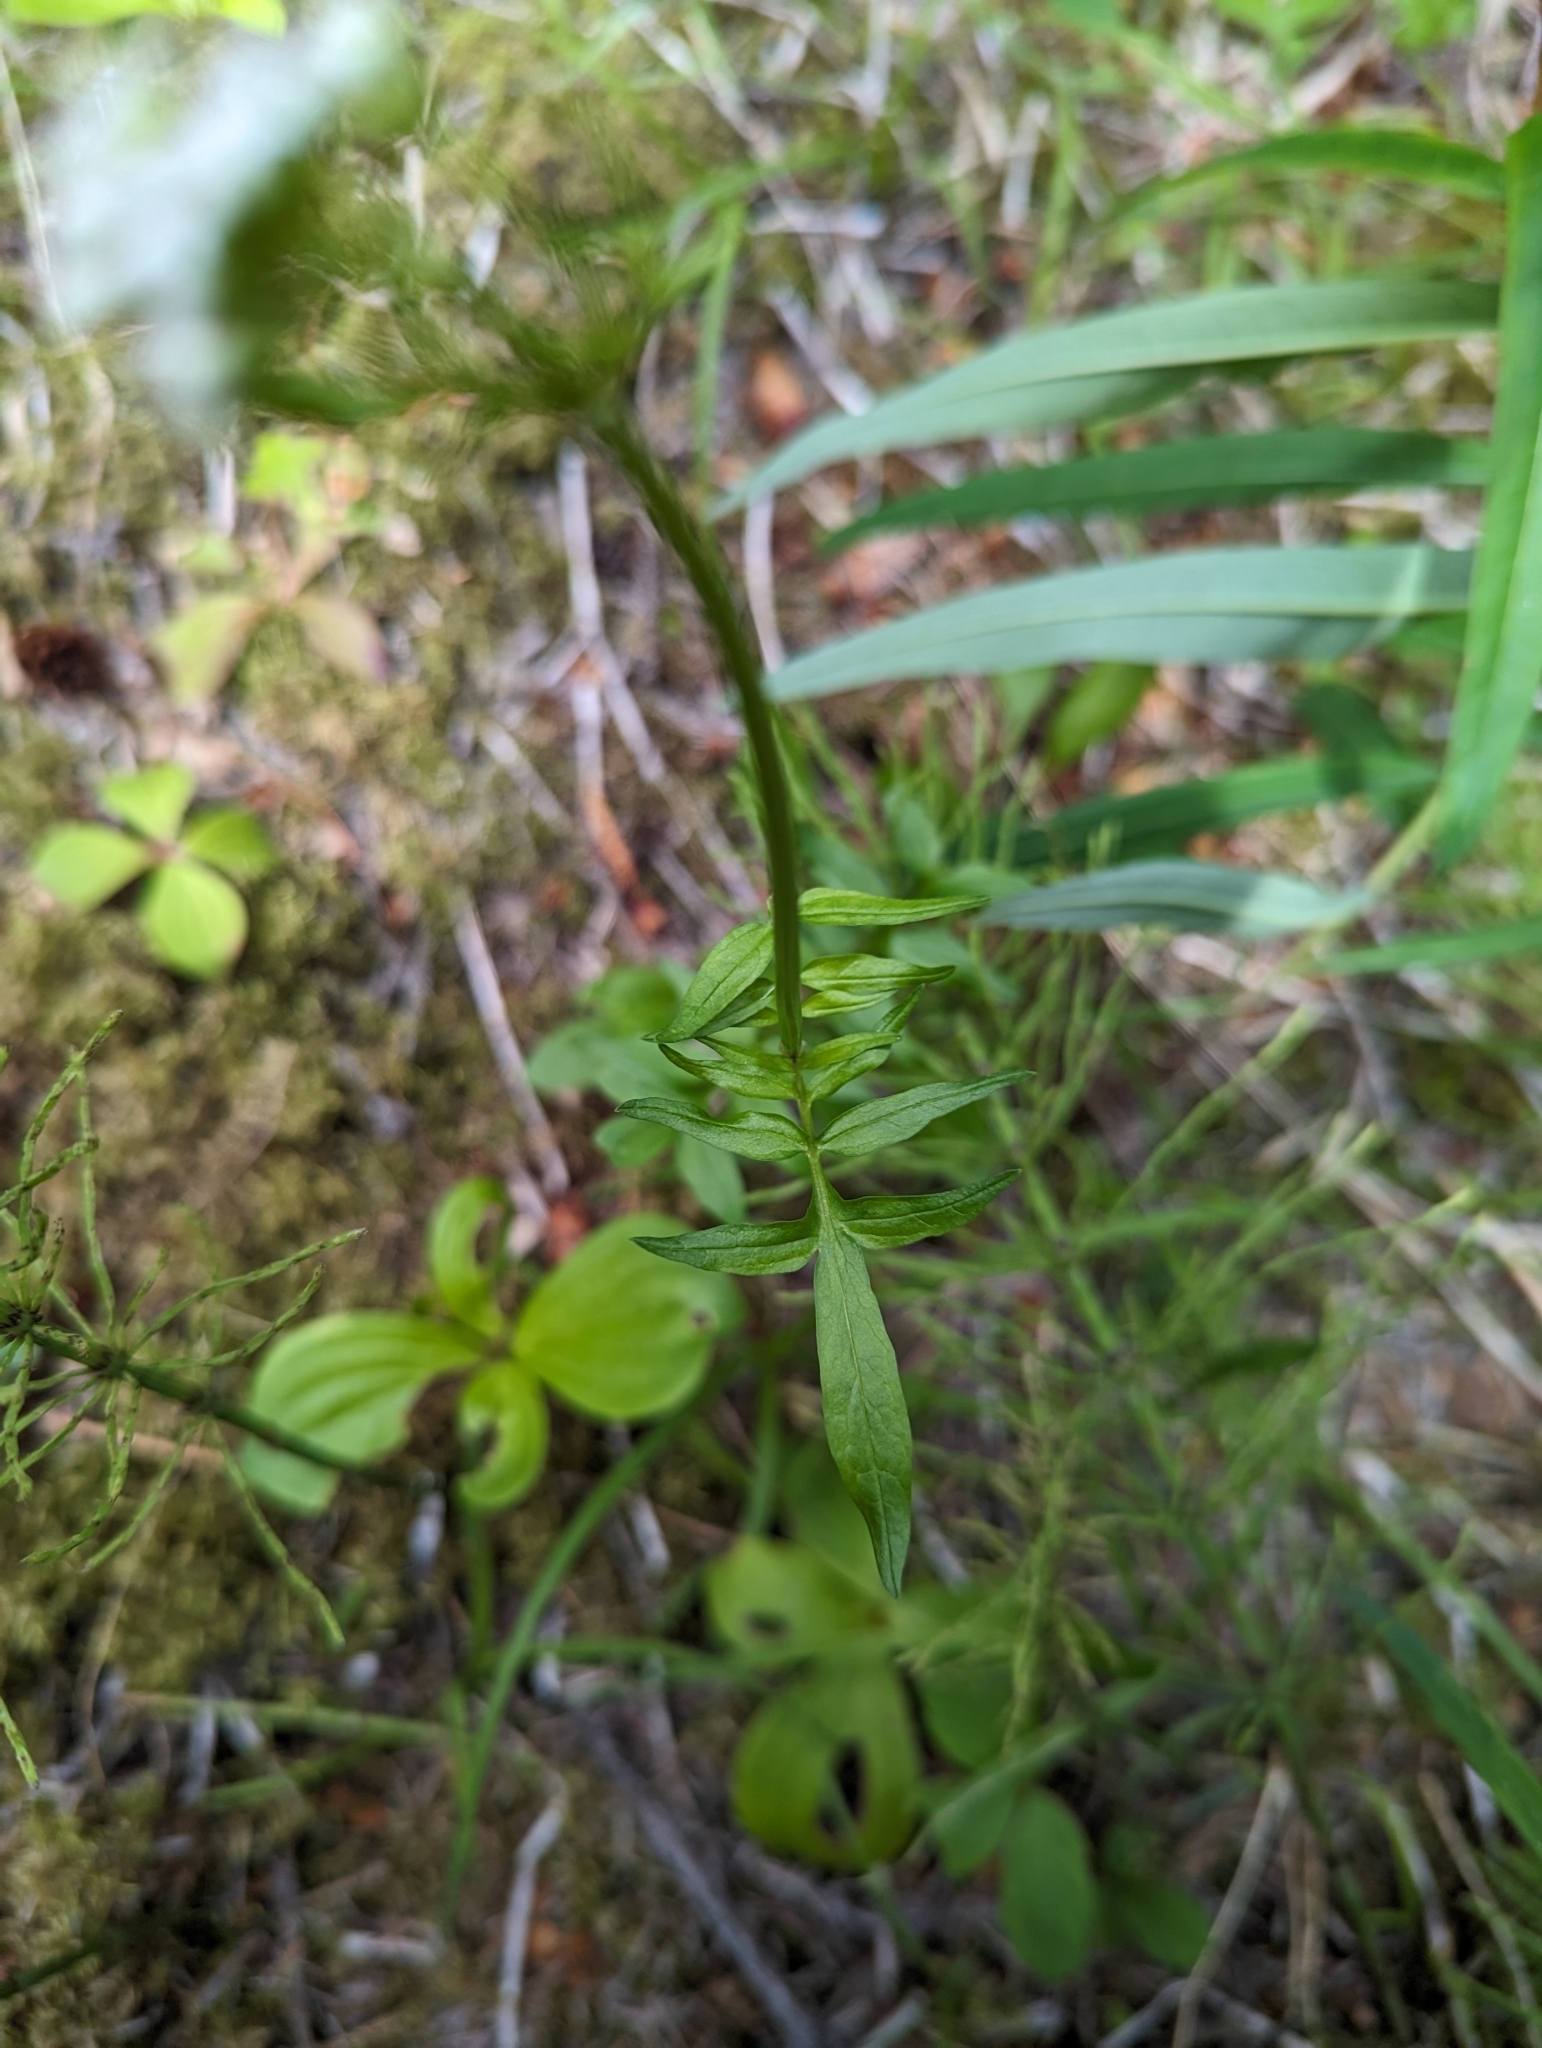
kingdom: Plantae
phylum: Tracheophyta
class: Magnoliopsida
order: Dipsacales
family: Caprifoliaceae
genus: Valeriana
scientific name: Valeriana dioica
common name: Marsh valerian
